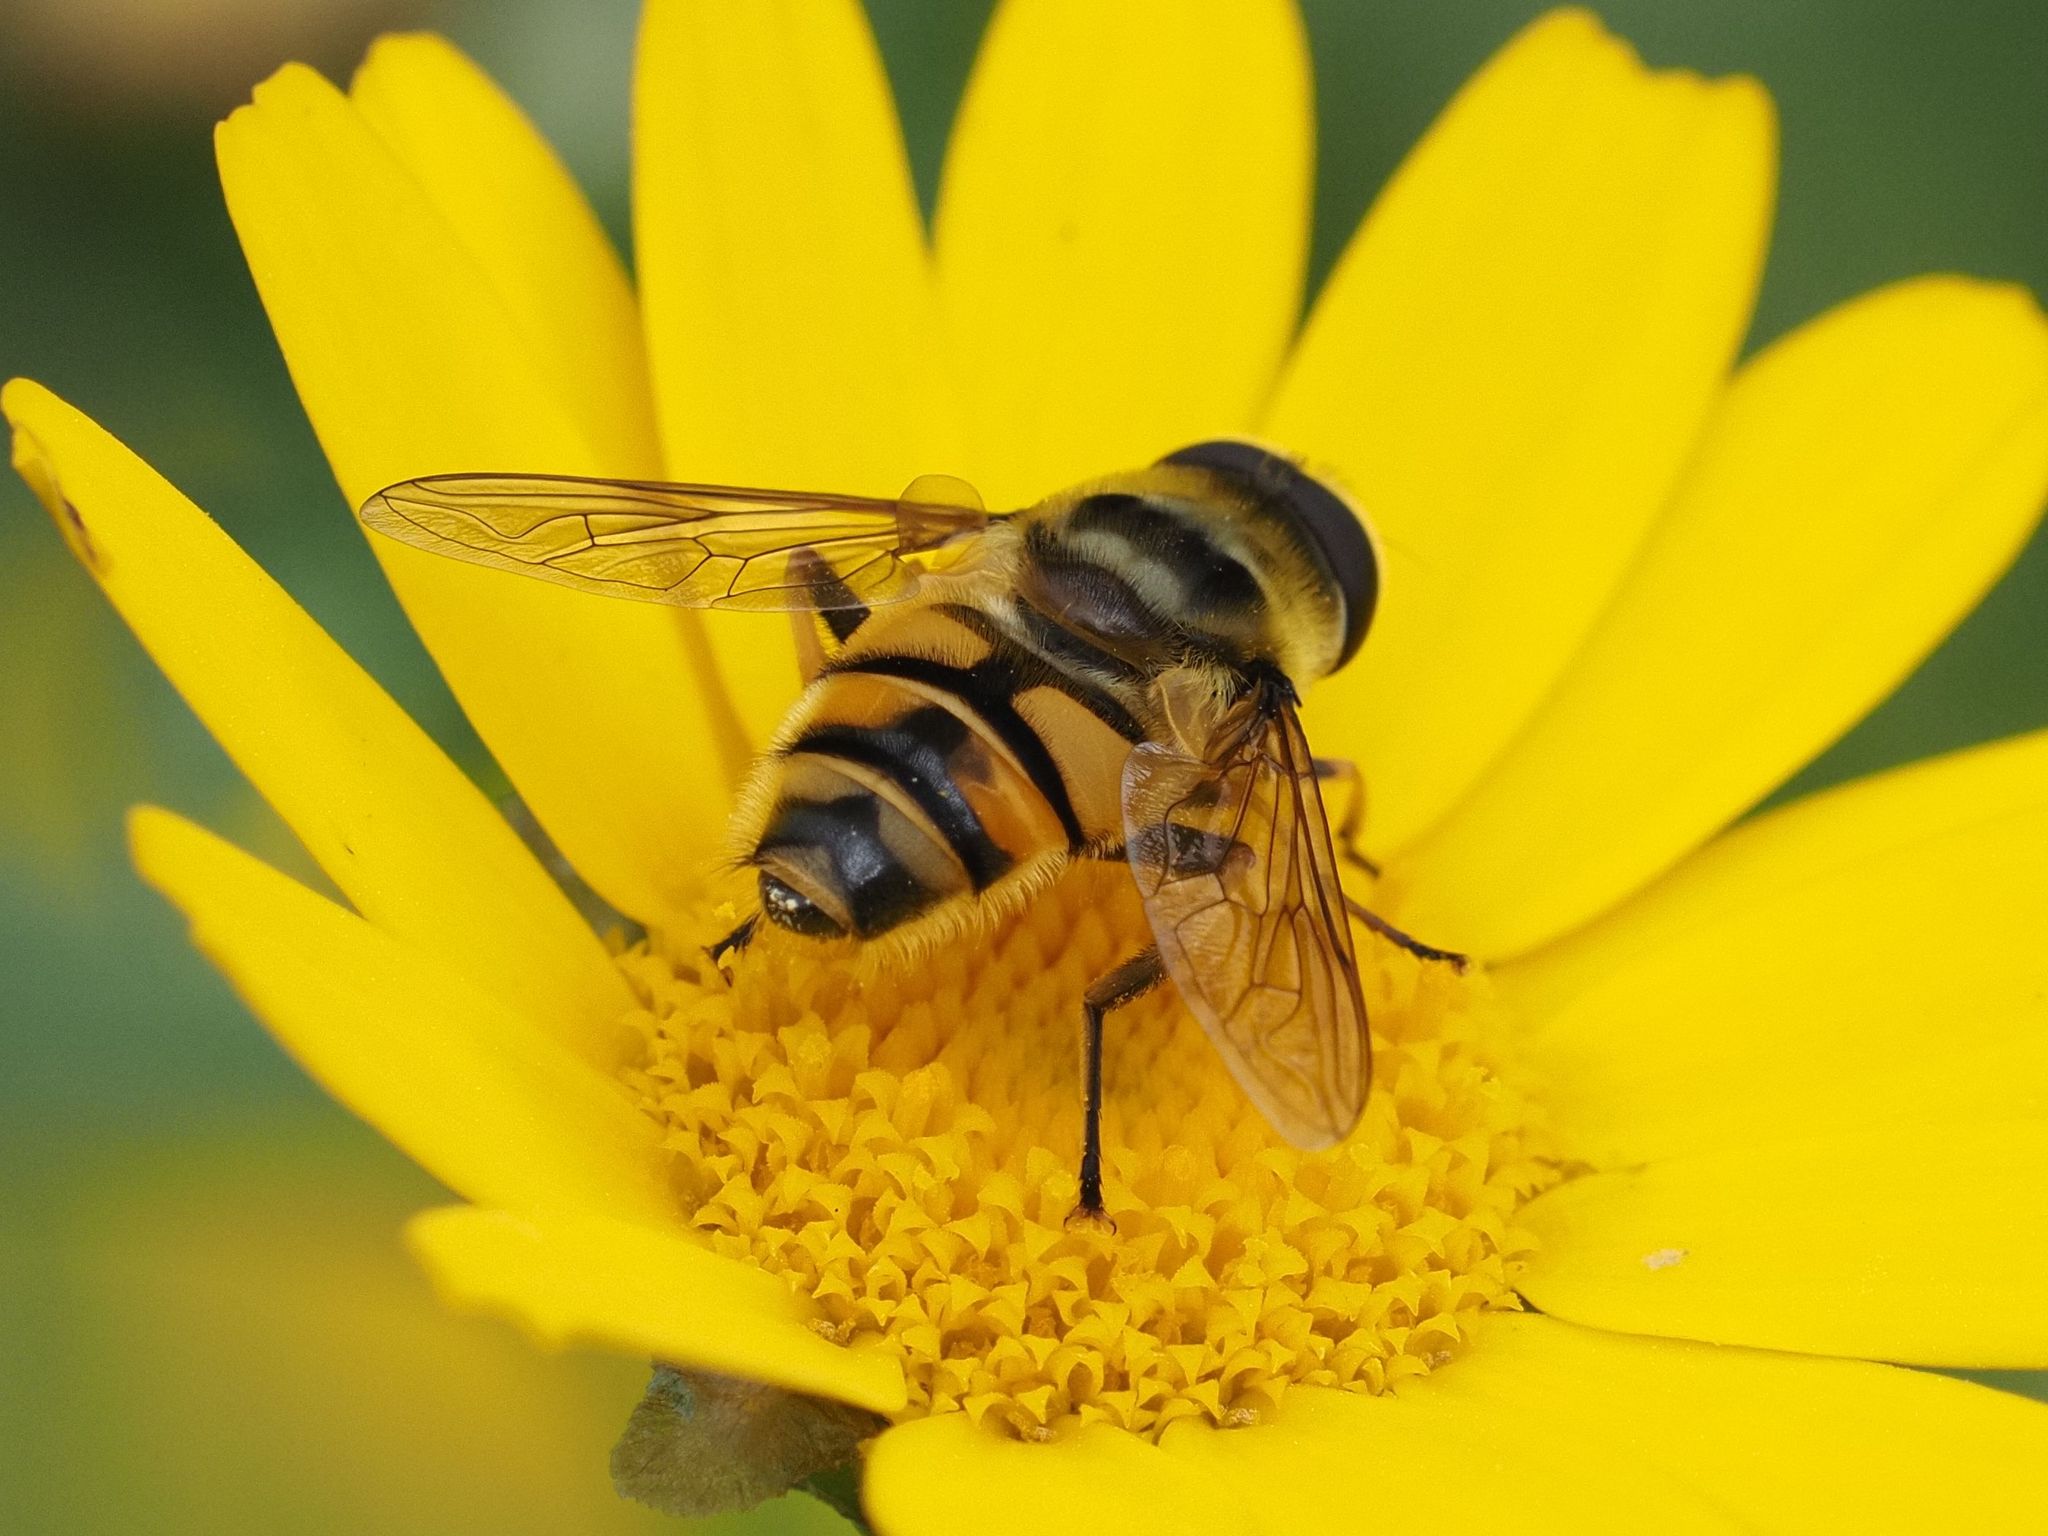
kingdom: Animalia
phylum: Arthropoda
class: Insecta
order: Diptera
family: Syrphidae
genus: Myathropa
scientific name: Myathropa florea
